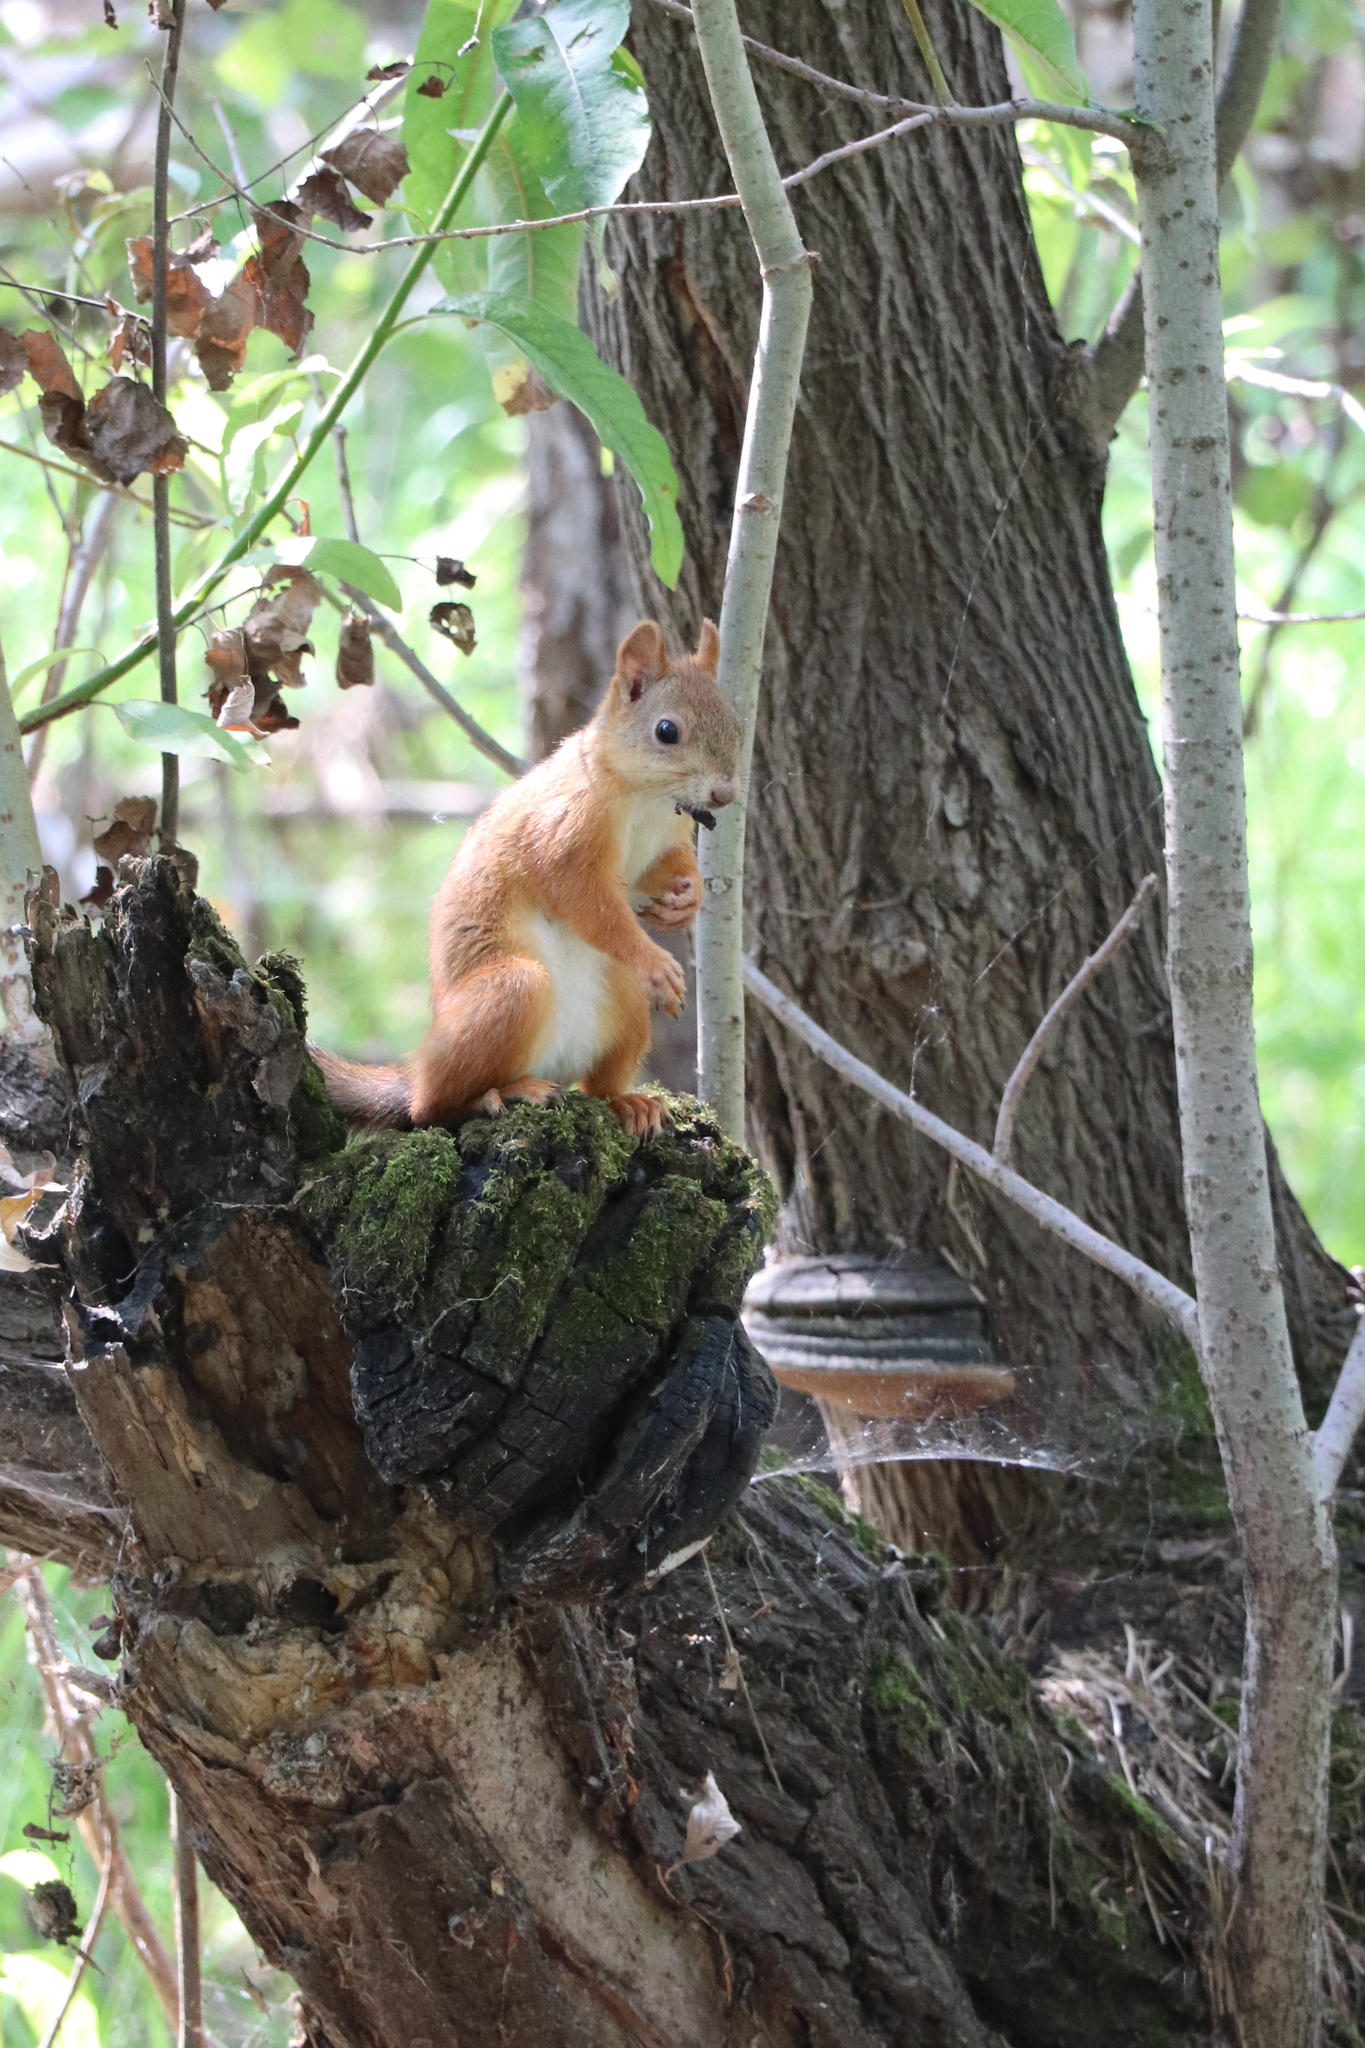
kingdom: Animalia
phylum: Chordata
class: Mammalia
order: Rodentia
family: Sciuridae
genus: Sciurus
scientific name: Sciurus vulgaris
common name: Eurasian red squirrel
